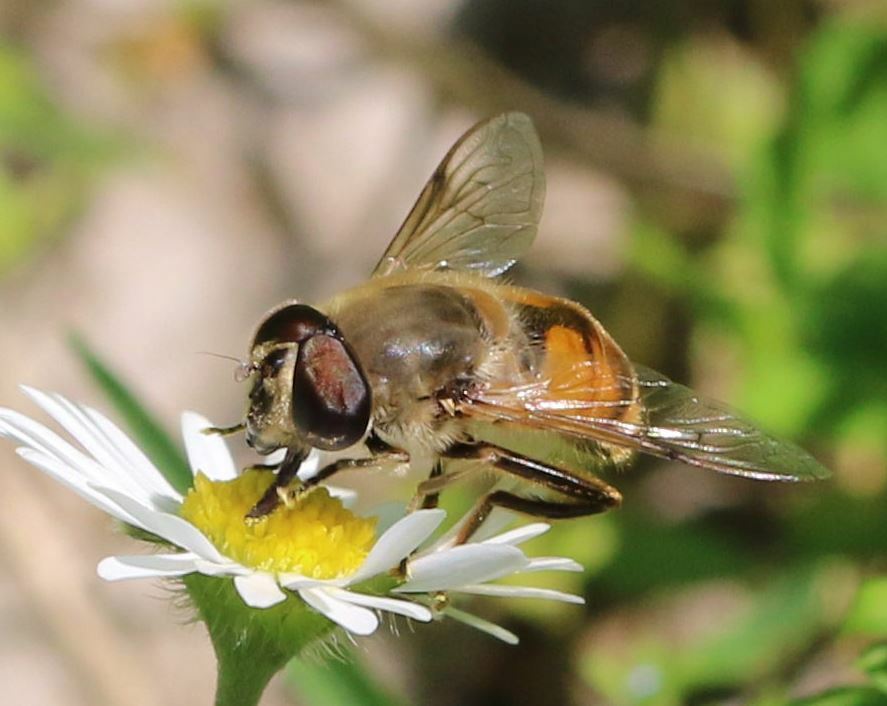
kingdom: Animalia
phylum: Arthropoda
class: Insecta
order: Diptera
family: Syrphidae
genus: Eristalis
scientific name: Eristalis tenax
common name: Drone fly
